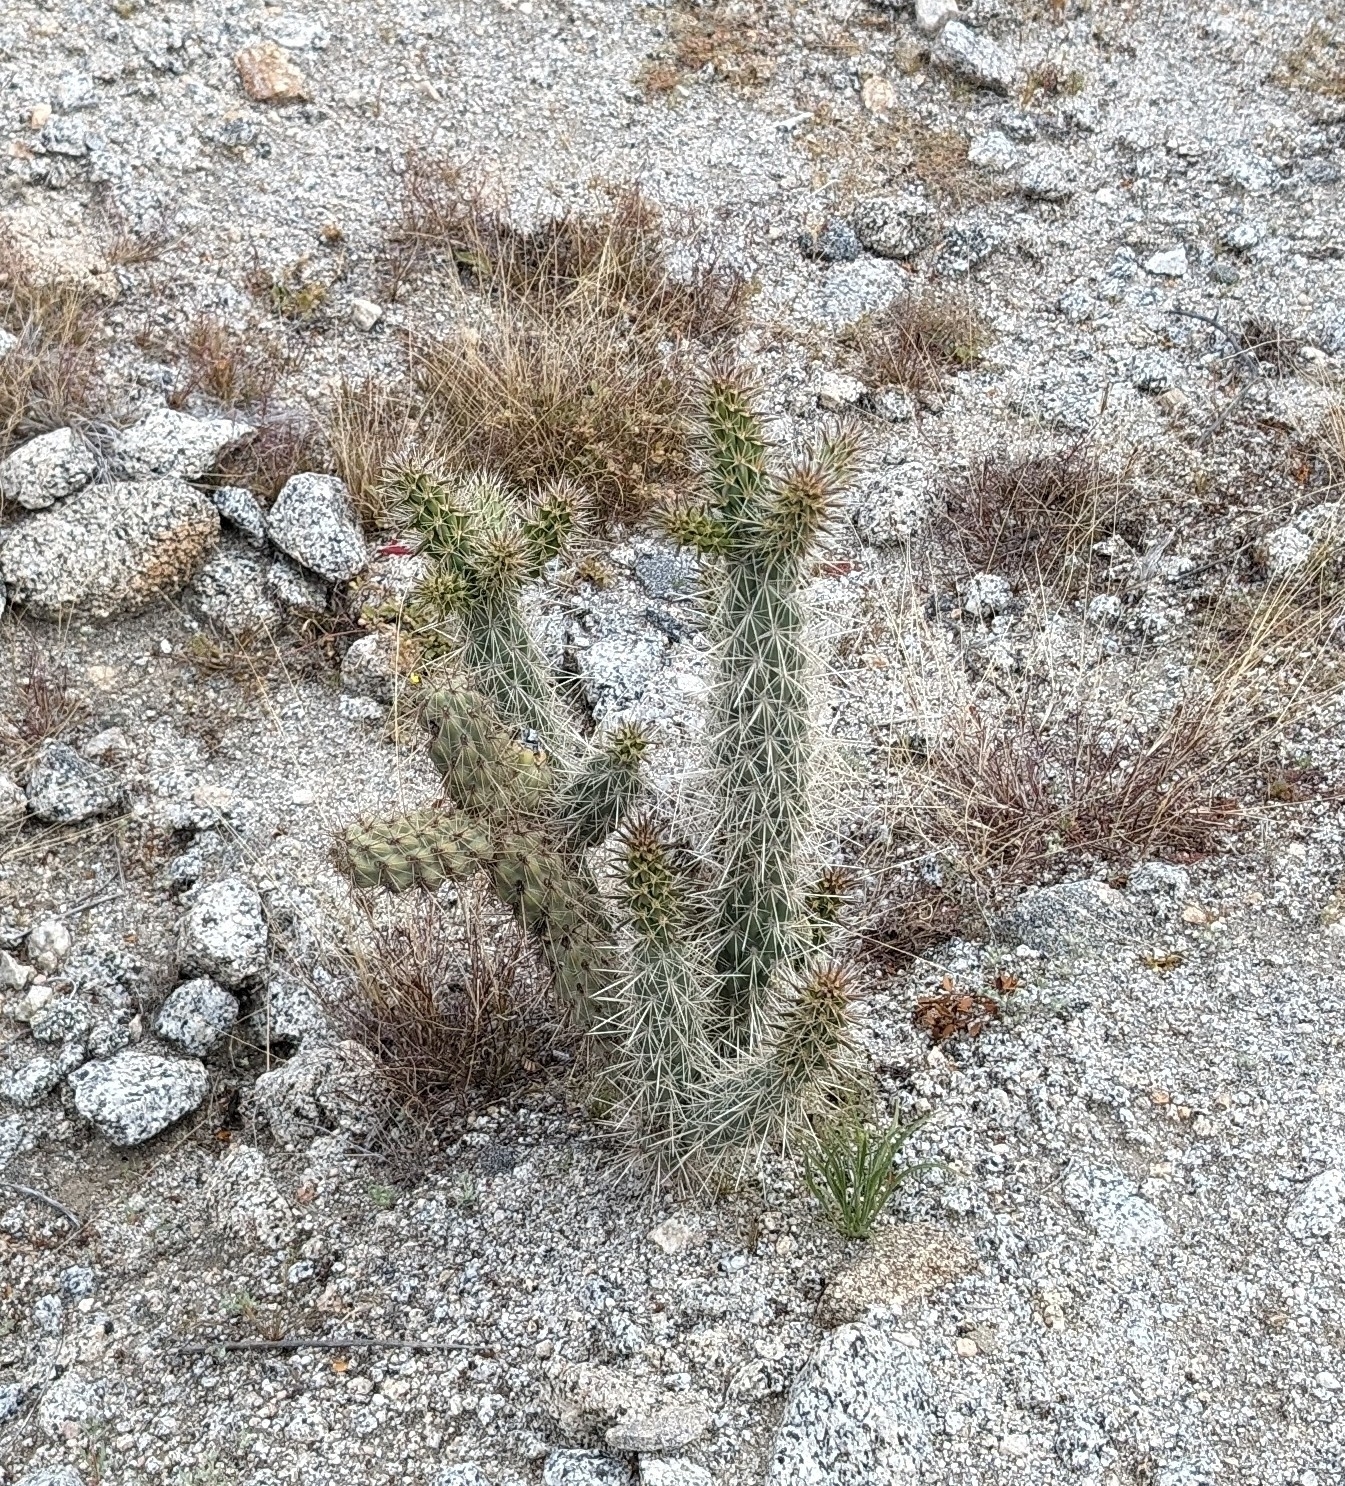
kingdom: Plantae
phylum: Tracheophyta
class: Magnoliopsida
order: Caryophyllales
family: Cactaceae
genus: Cylindropuntia
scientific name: Cylindropuntia ganderi
